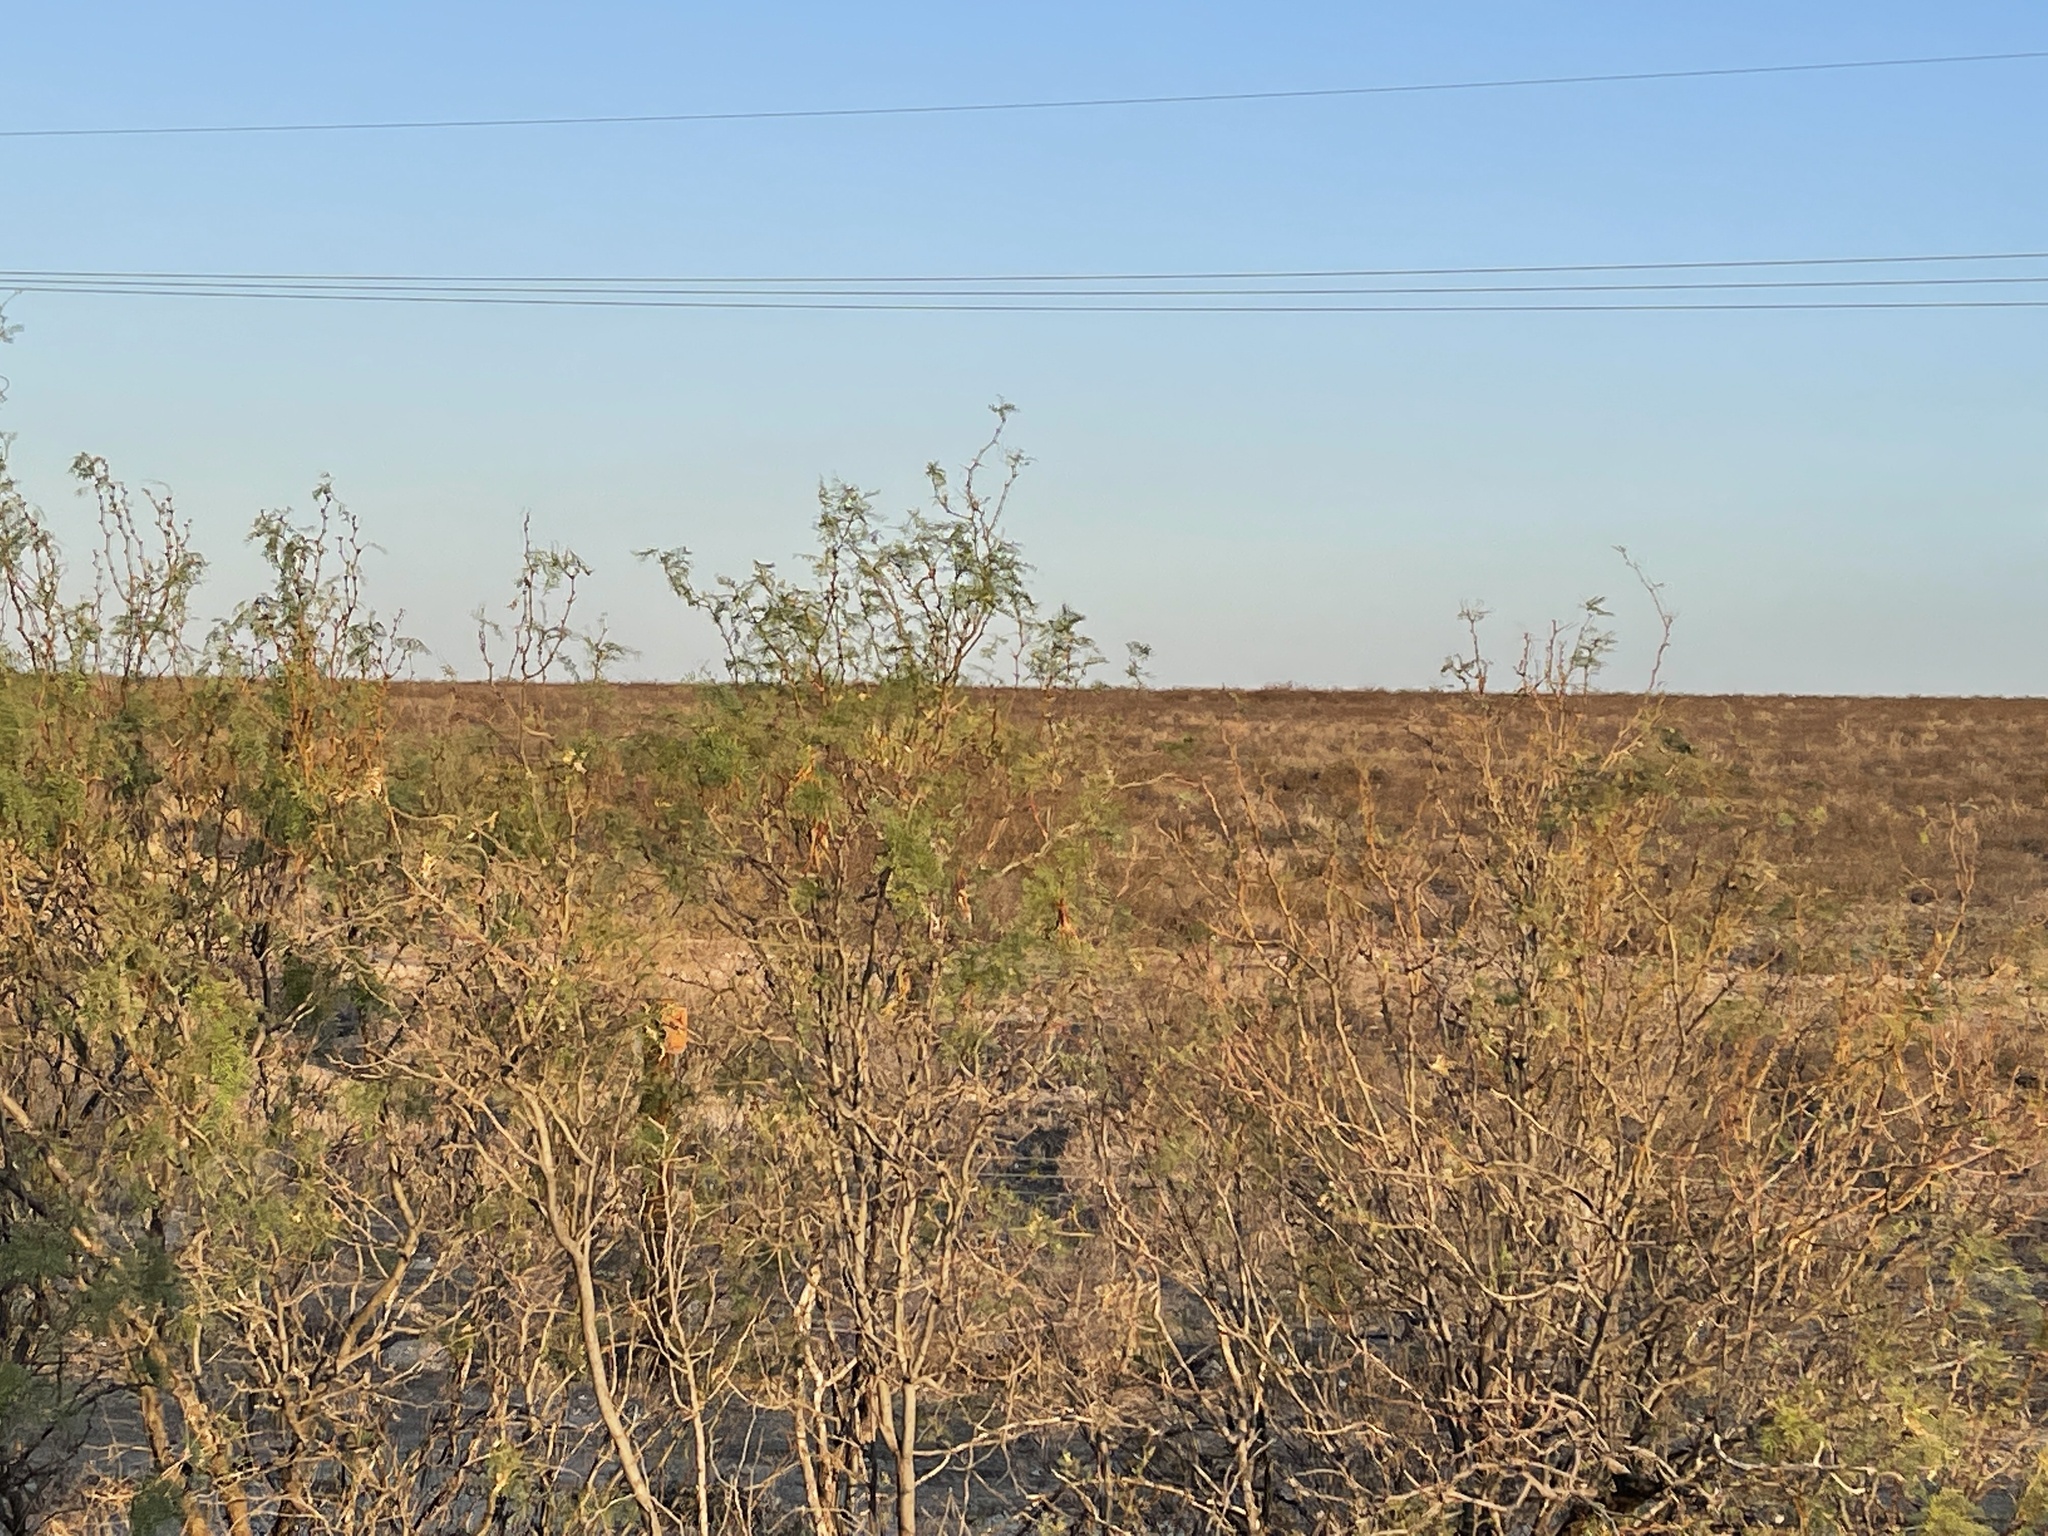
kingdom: Plantae
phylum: Tracheophyta
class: Magnoliopsida
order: Fabales
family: Fabaceae
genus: Prosopis
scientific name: Prosopis glandulosa
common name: Honey mesquite
